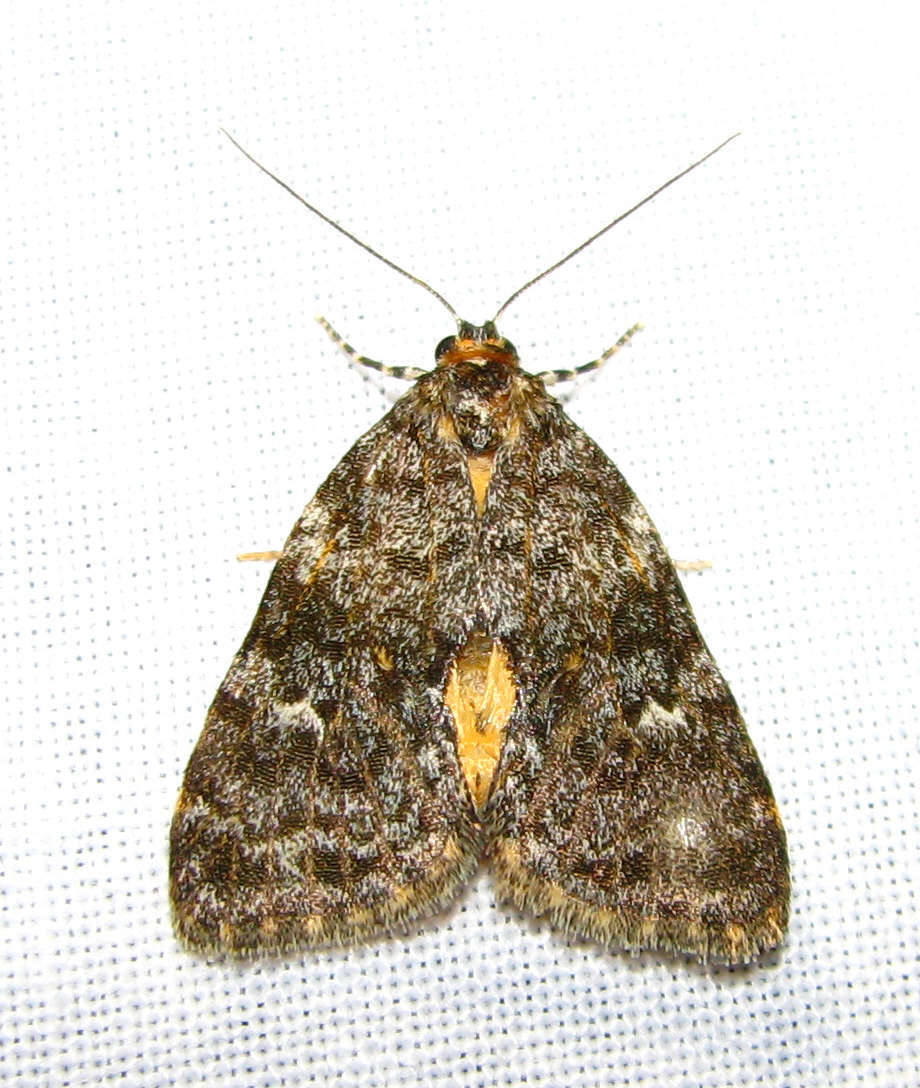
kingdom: Animalia
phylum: Arthropoda
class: Insecta
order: Lepidoptera
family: Erebidae
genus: Parelictis
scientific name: Parelictis saleuta
